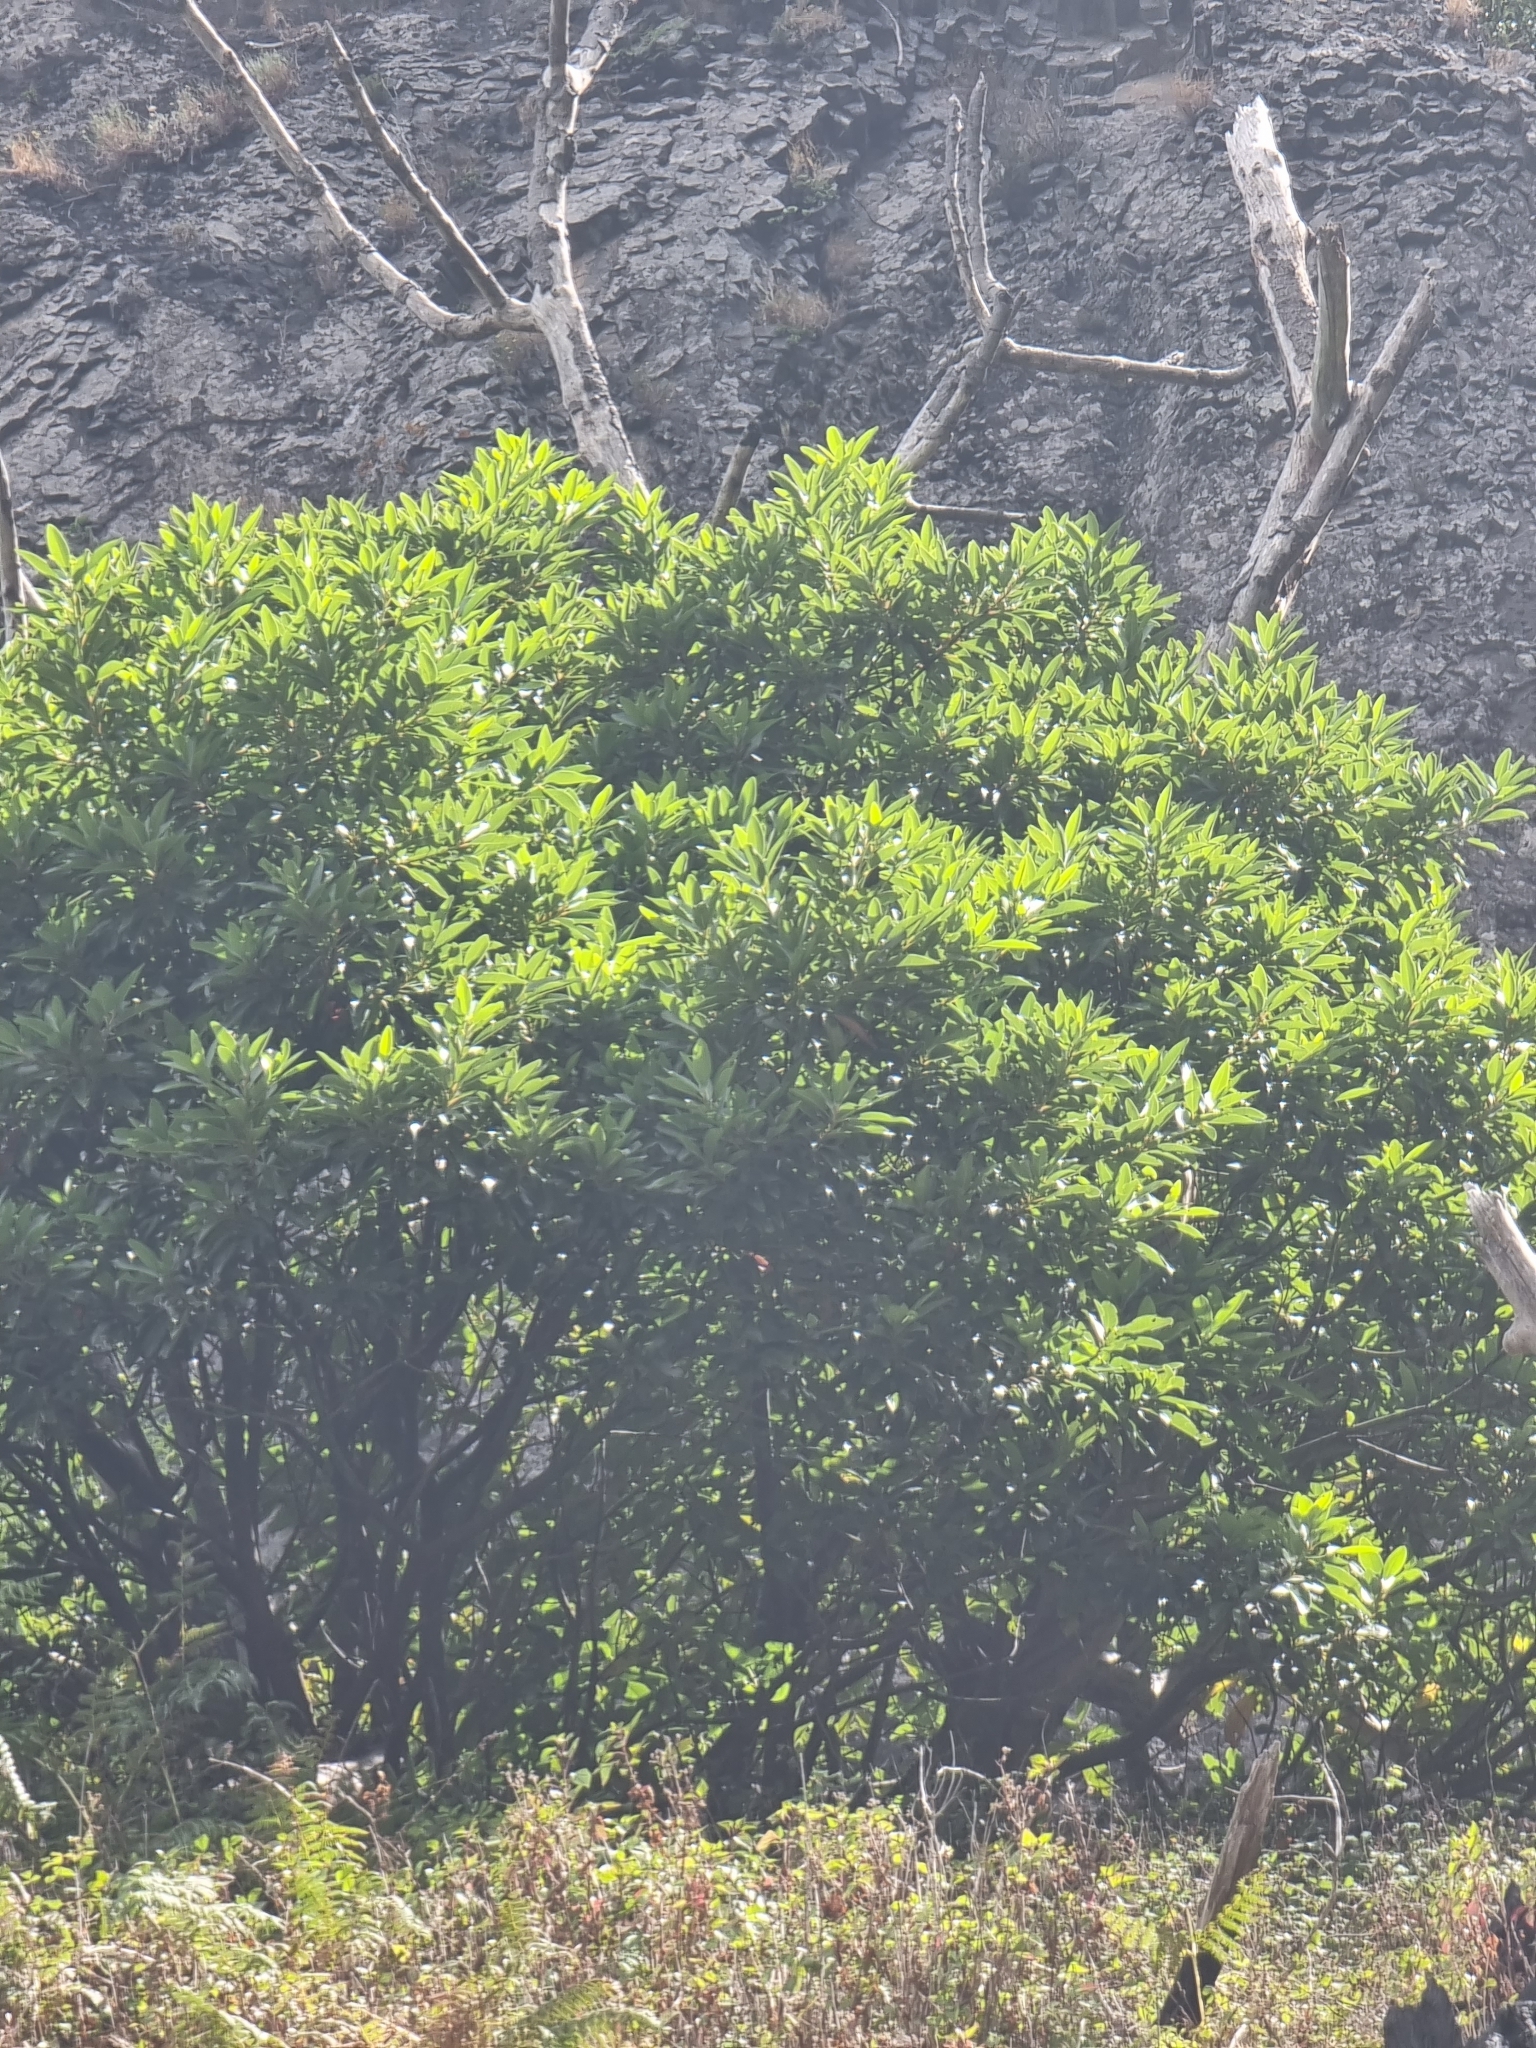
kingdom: Plantae
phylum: Tracheophyta
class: Magnoliopsida
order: Laurales
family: Lauraceae
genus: Persea
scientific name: Persea indica
